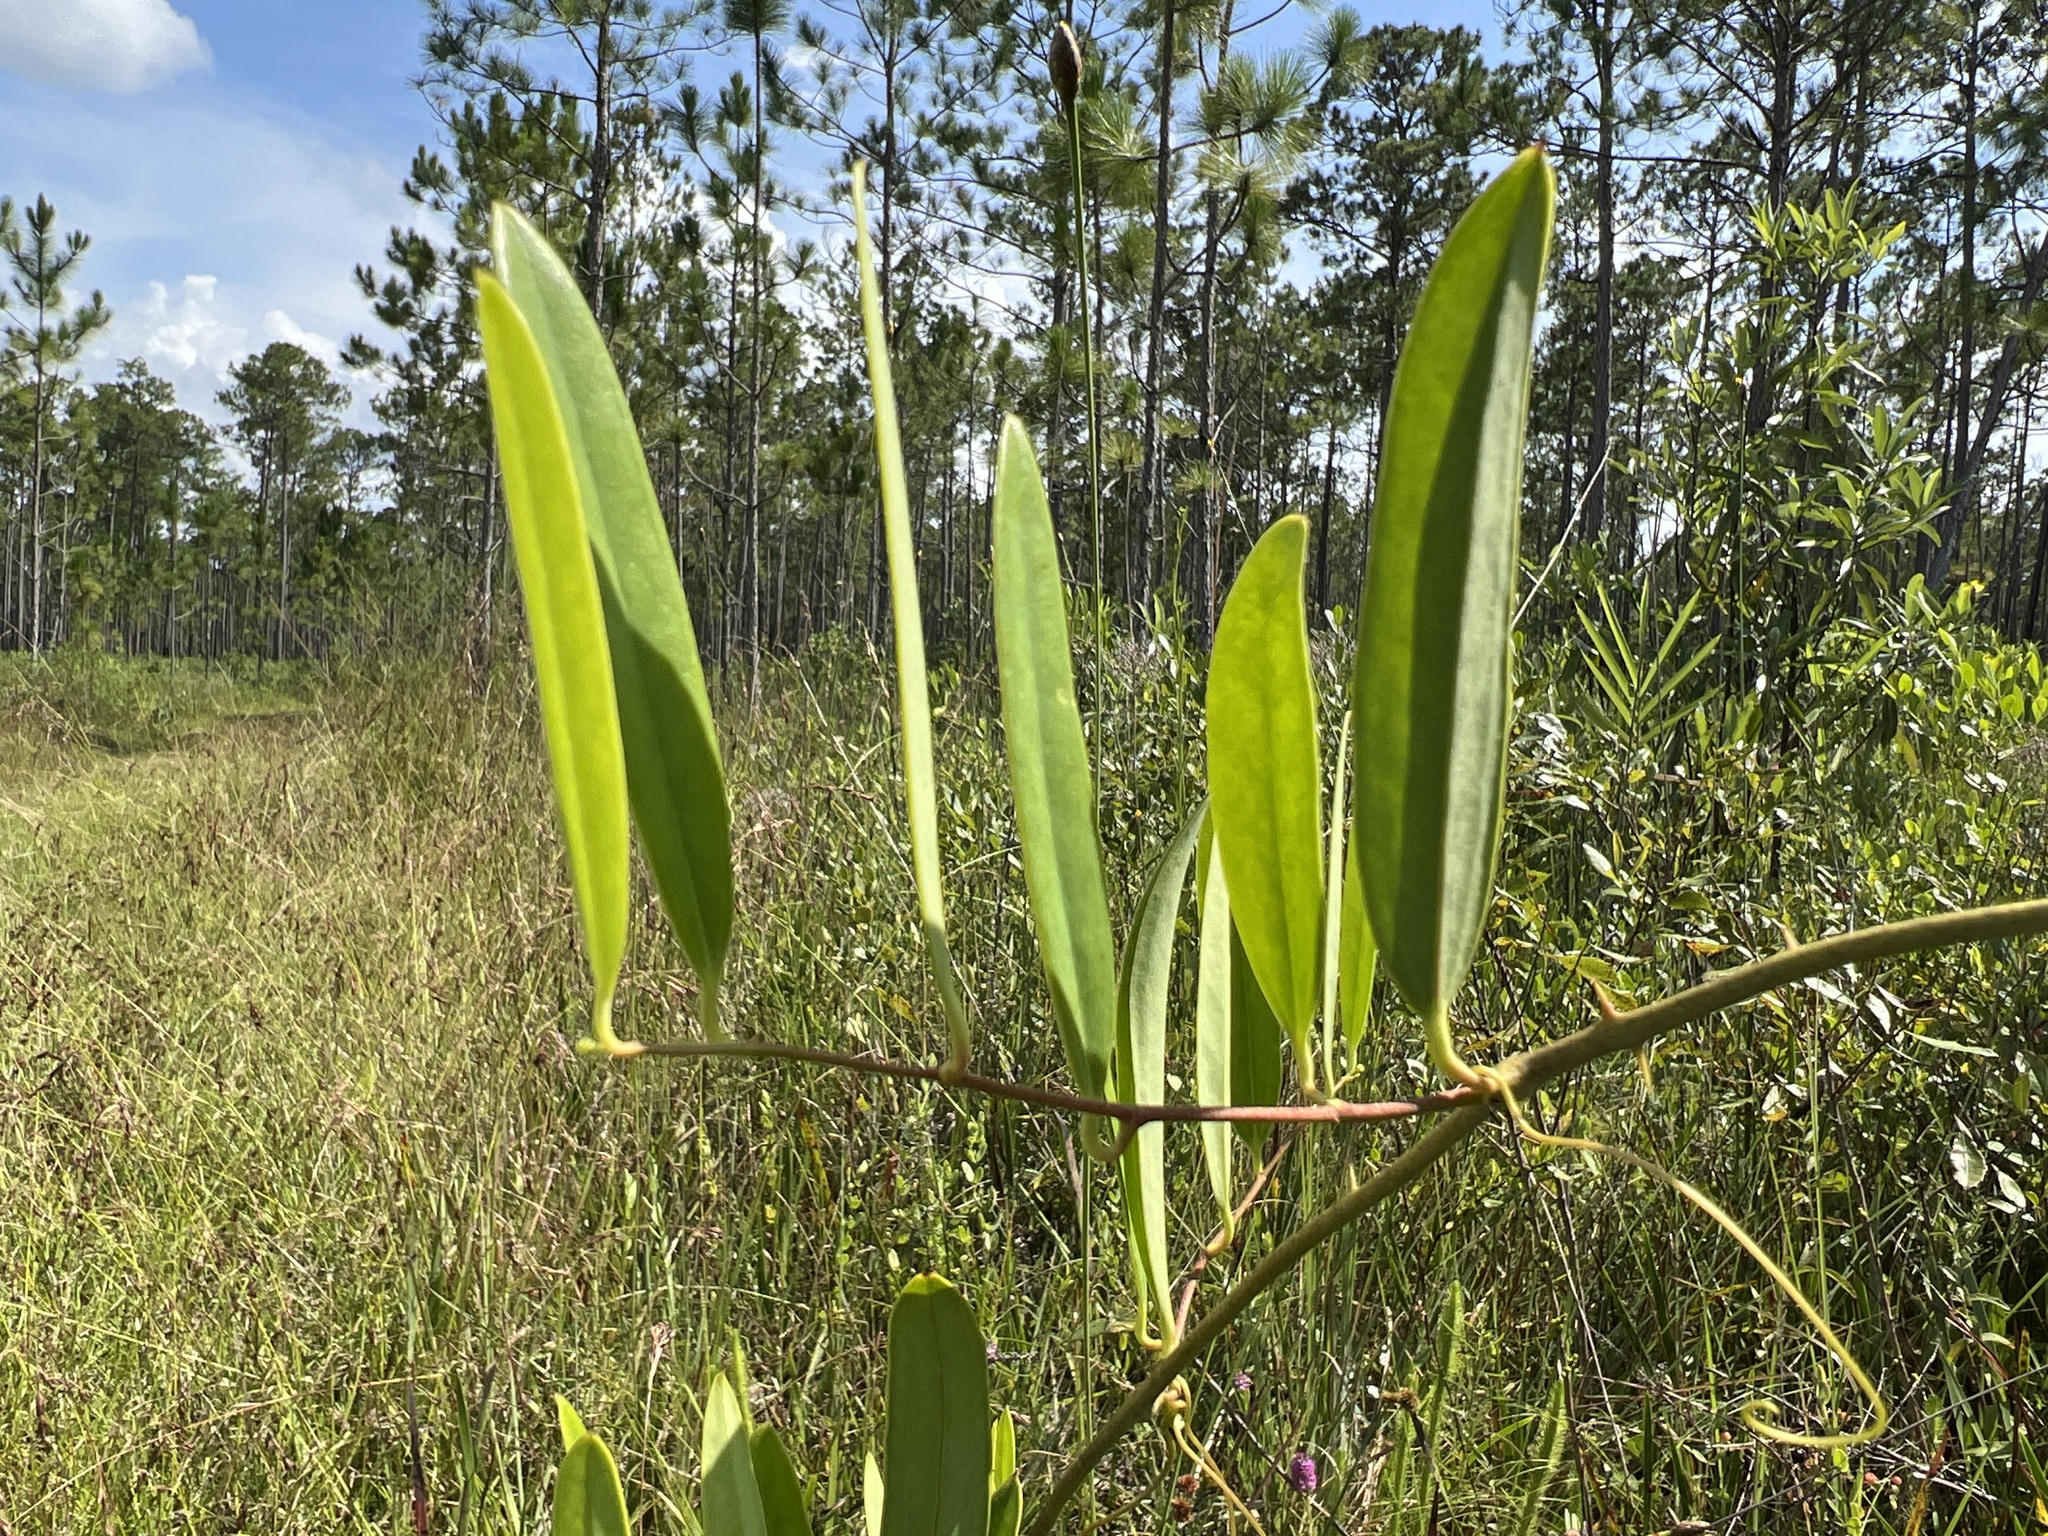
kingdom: Plantae
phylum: Tracheophyta
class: Liliopsida
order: Liliales
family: Smilacaceae
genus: Smilax
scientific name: Smilax laurifolia
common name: Bamboovine
